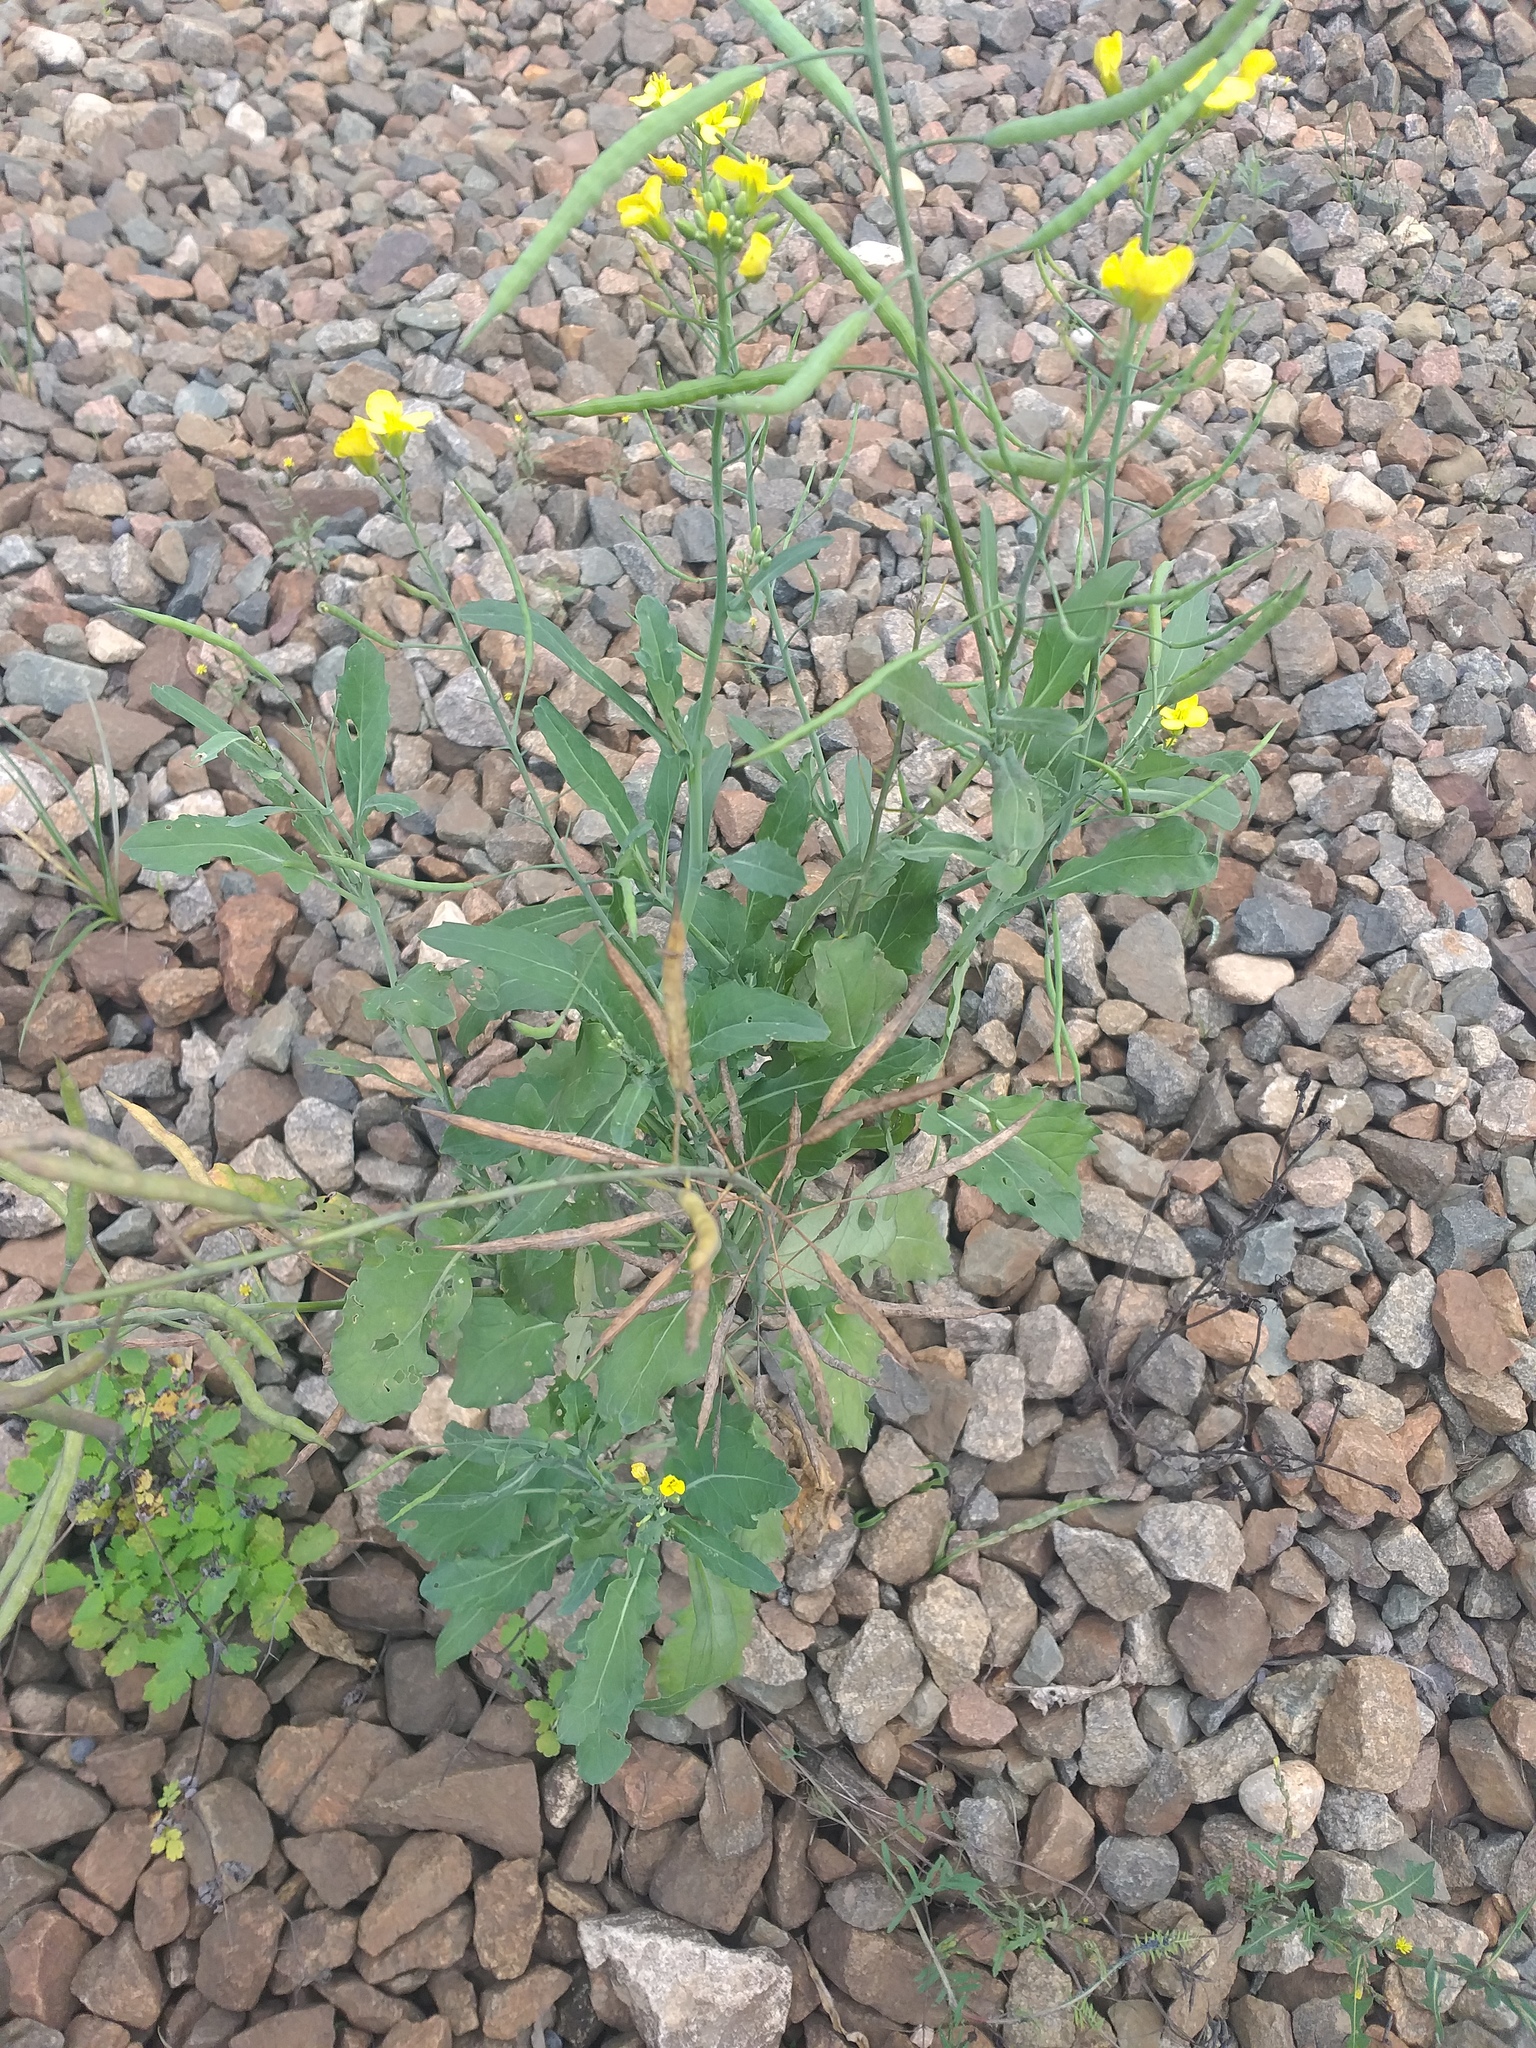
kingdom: Plantae
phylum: Tracheophyta
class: Magnoliopsida
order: Brassicales
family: Brassicaceae
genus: Brassica
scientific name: Brassica napus
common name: Rape
